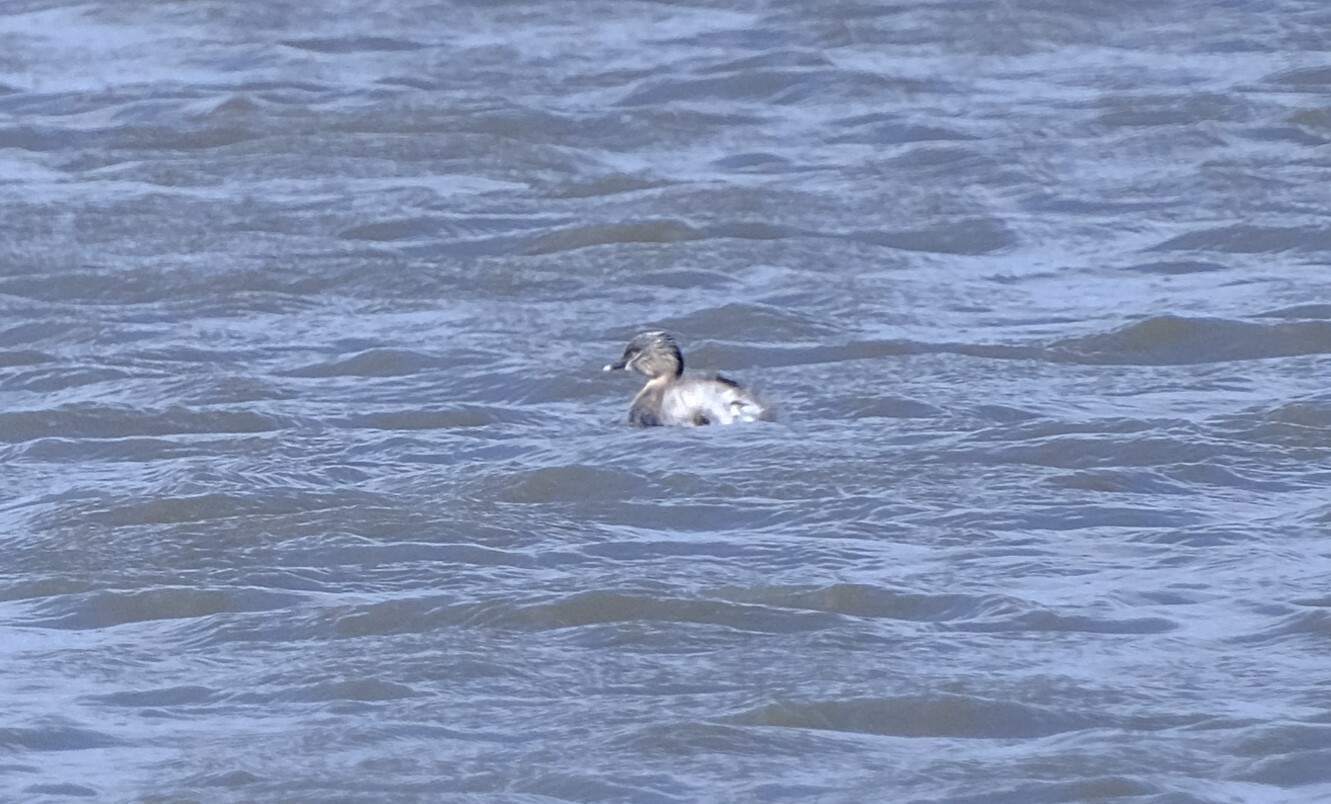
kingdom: Animalia
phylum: Chordata
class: Aves
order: Podicipediformes
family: Podicipedidae
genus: Poliocephalus
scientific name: Poliocephalus poliocephalus
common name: Hoary-headed grebe
